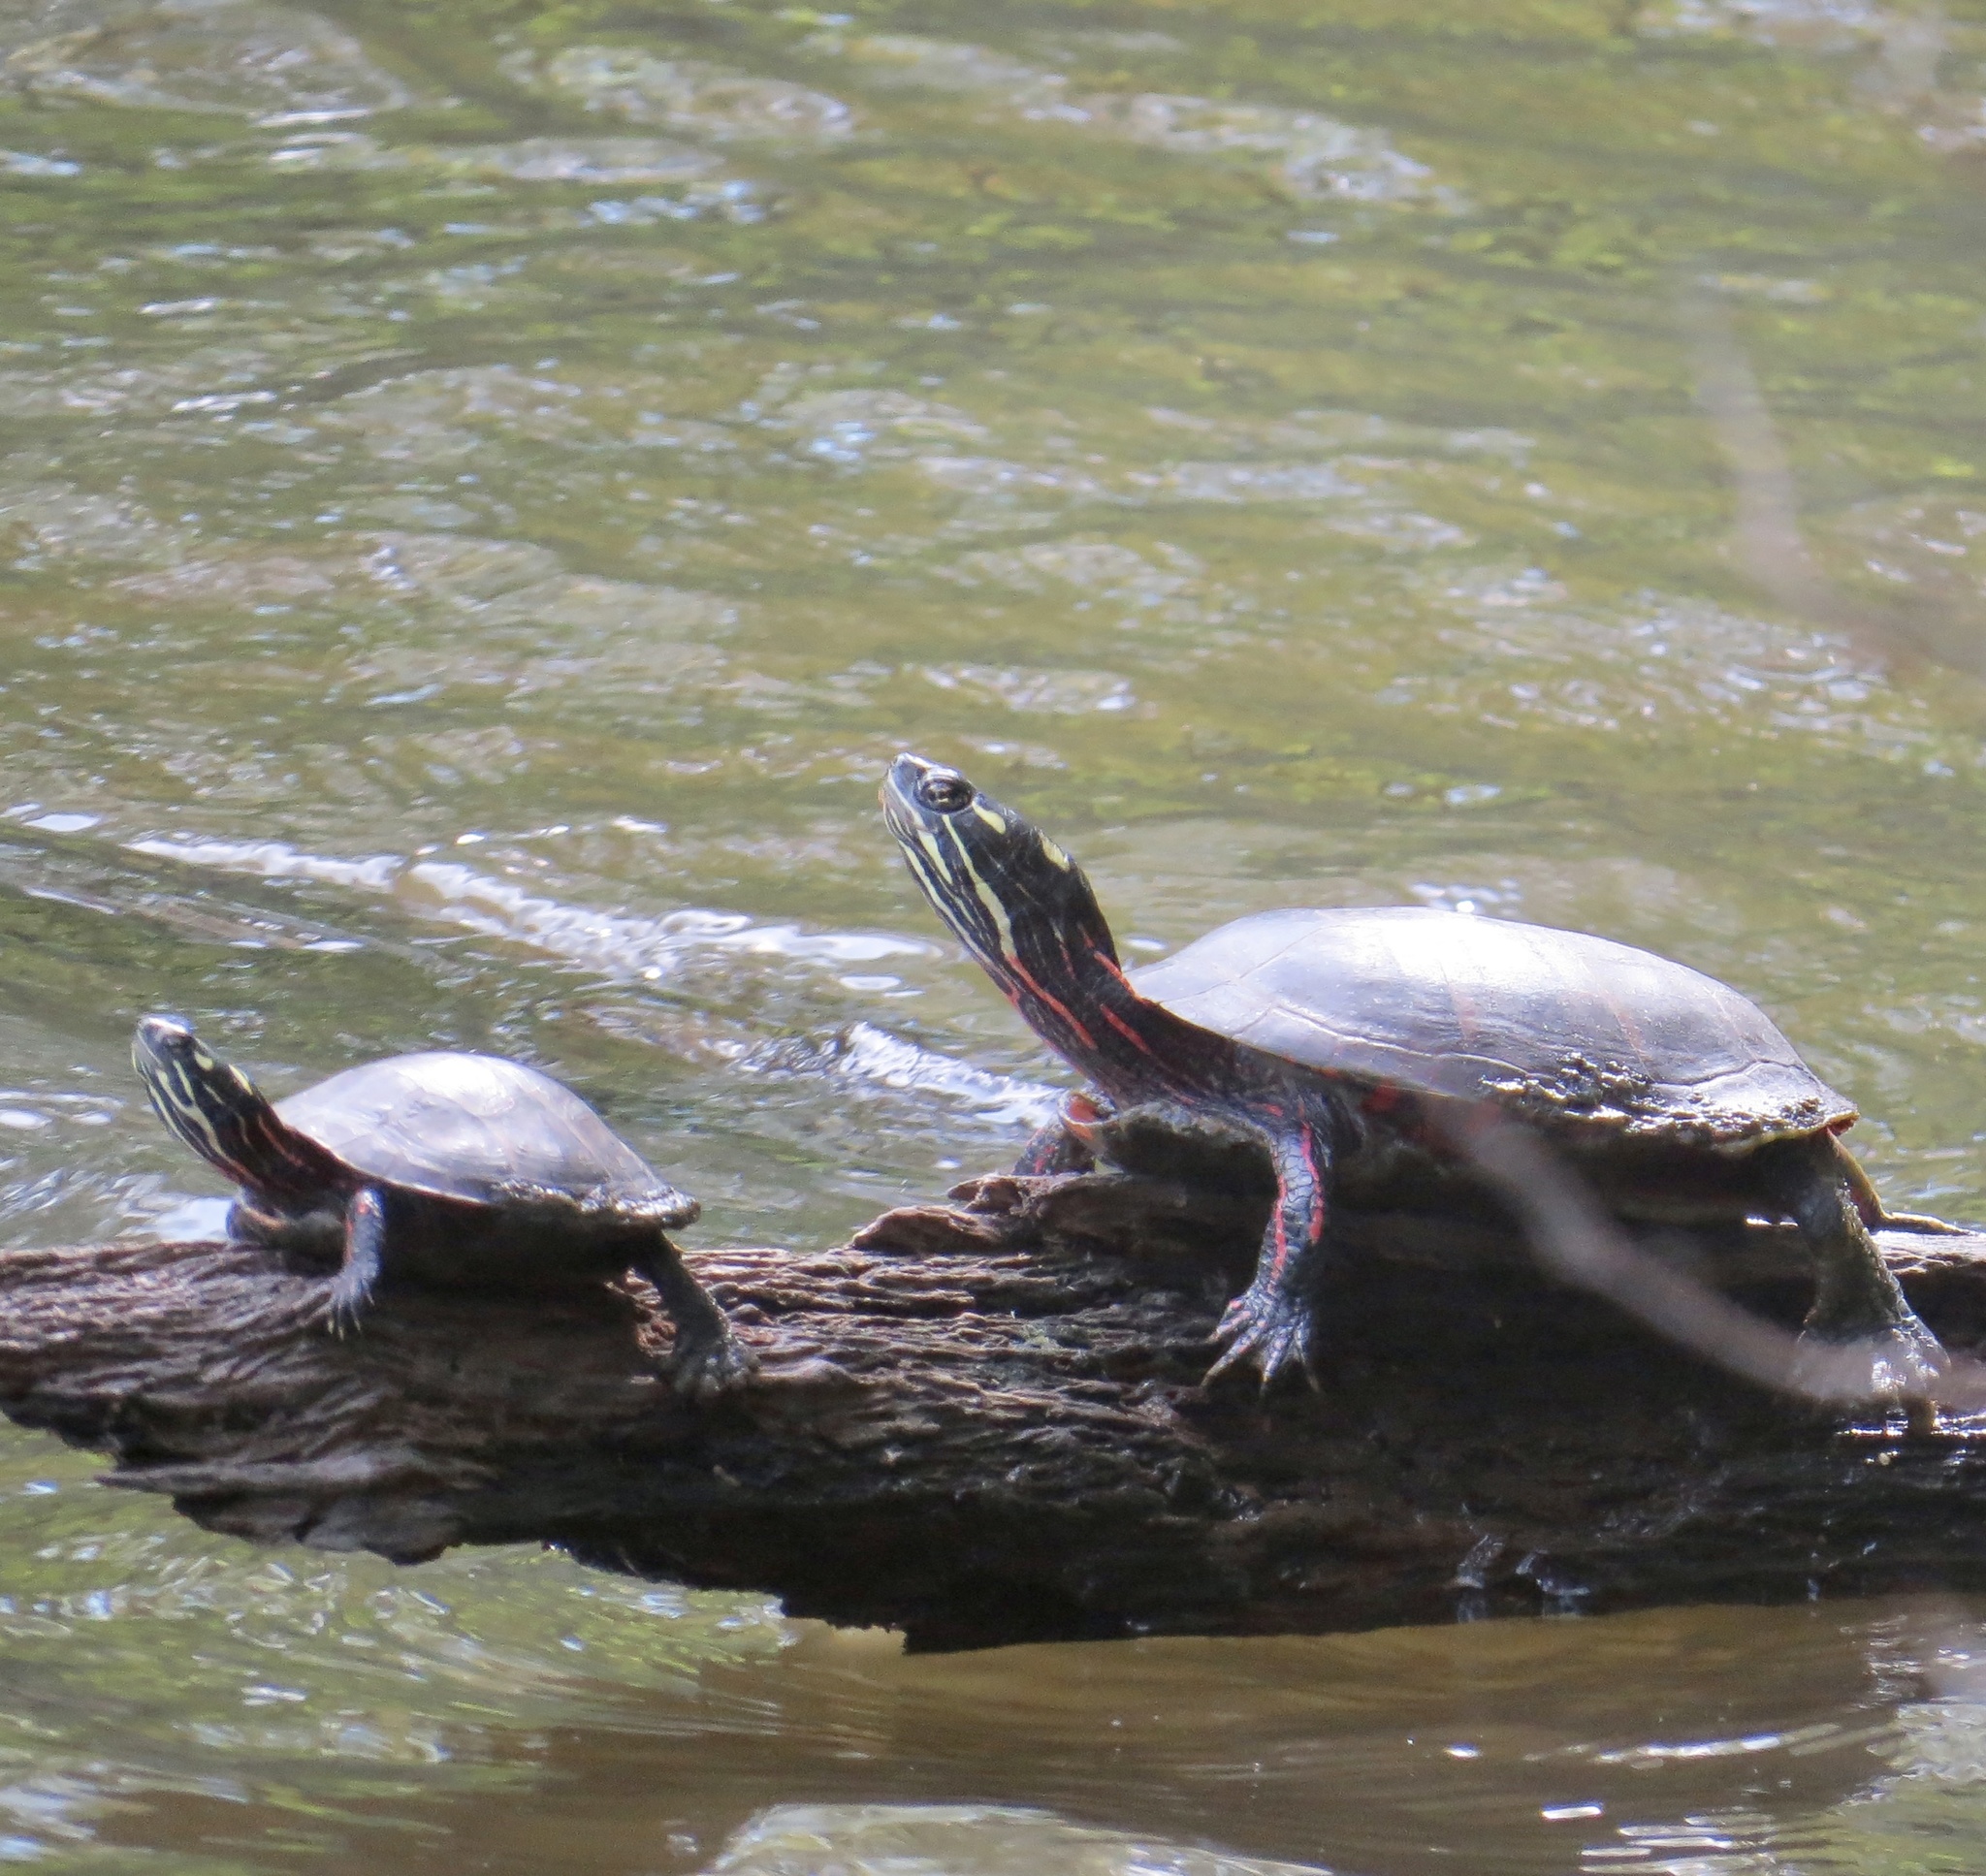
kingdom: Animalia
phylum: Chordata
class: Testudines
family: Emydidae
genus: Chrysemys
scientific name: Chrysemys picta
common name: Painted turtle
